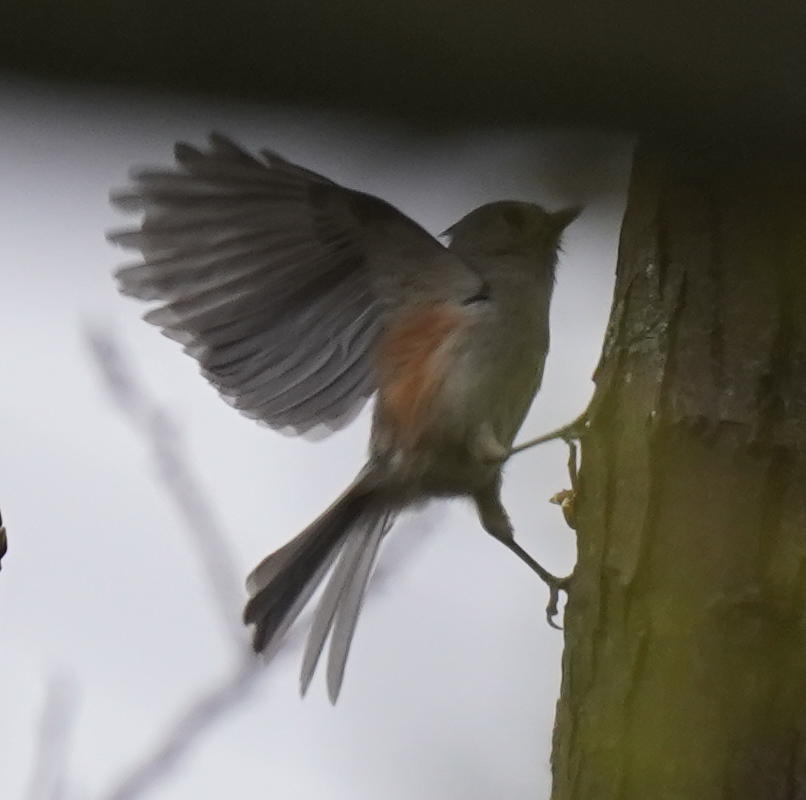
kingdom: Animalia
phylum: Chordata
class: Aves
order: Passeriformes
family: Paridae
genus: Baeolophus
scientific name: Baeolophus bicolor
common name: Tufted titmouse
